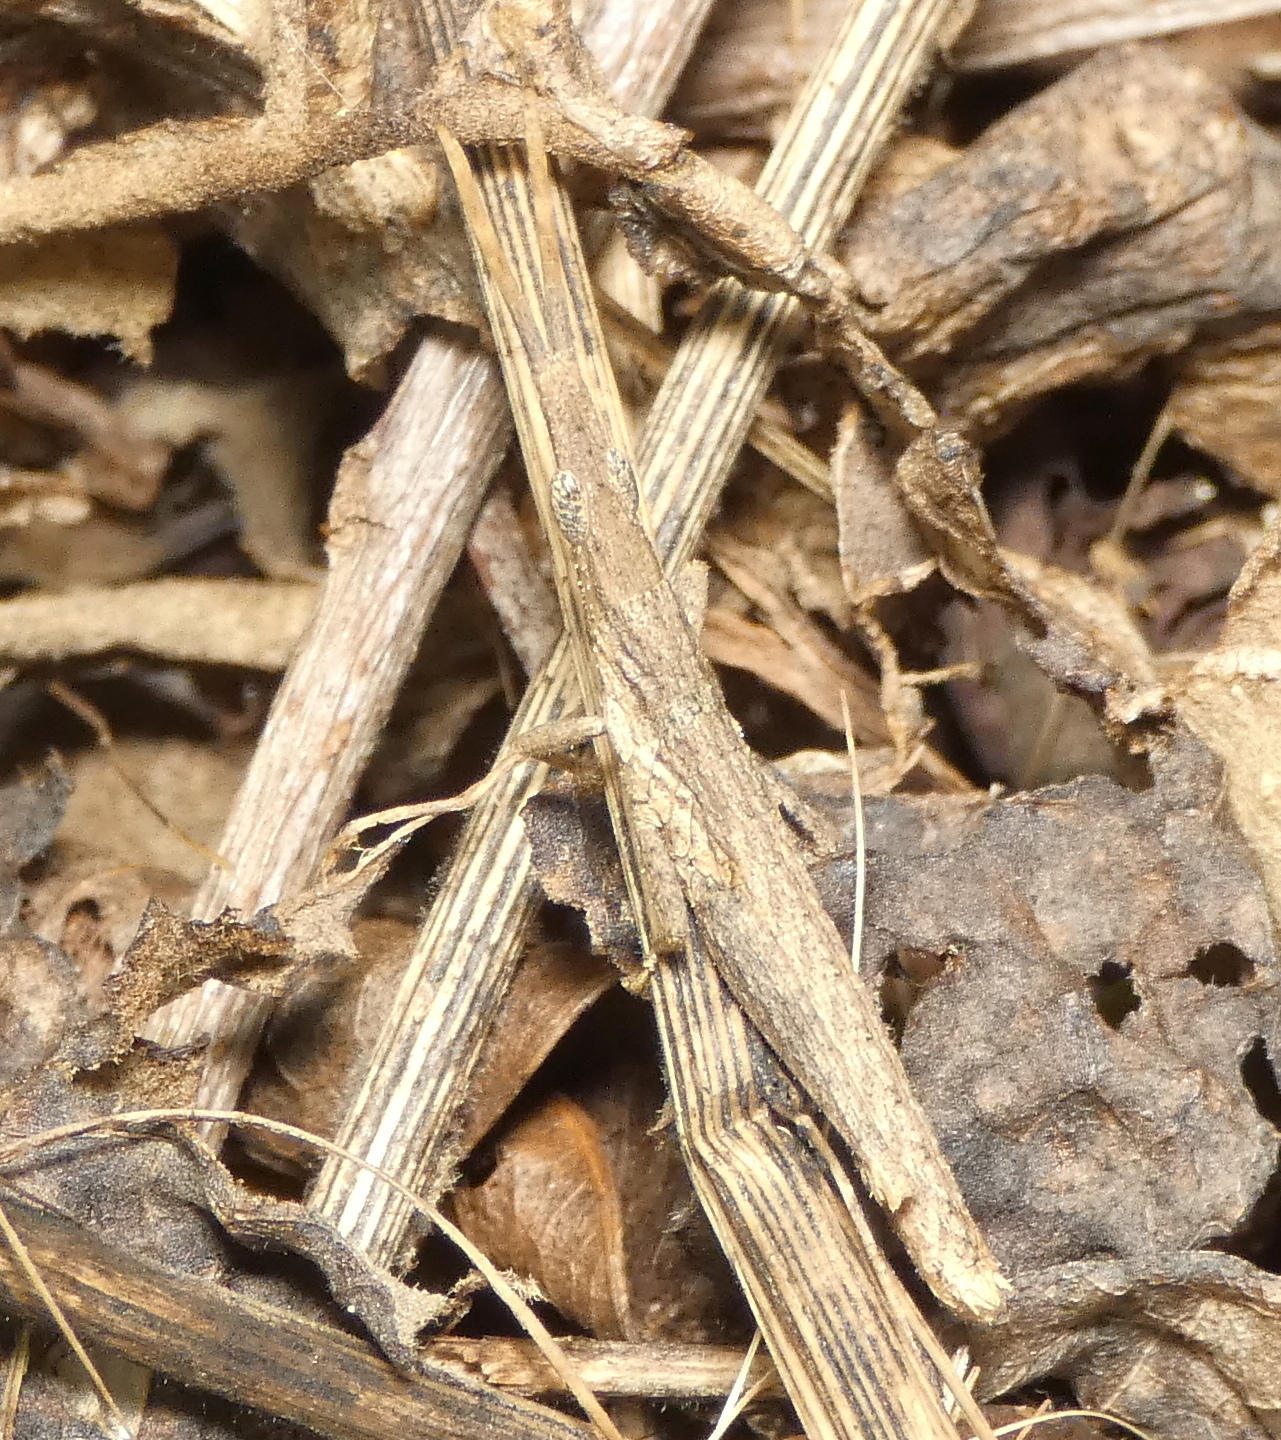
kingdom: Animalia
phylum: Arthropoda
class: Insecta
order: Orthoptera
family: Pyrgomorphidae
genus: Algete
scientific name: Algete brunneri
